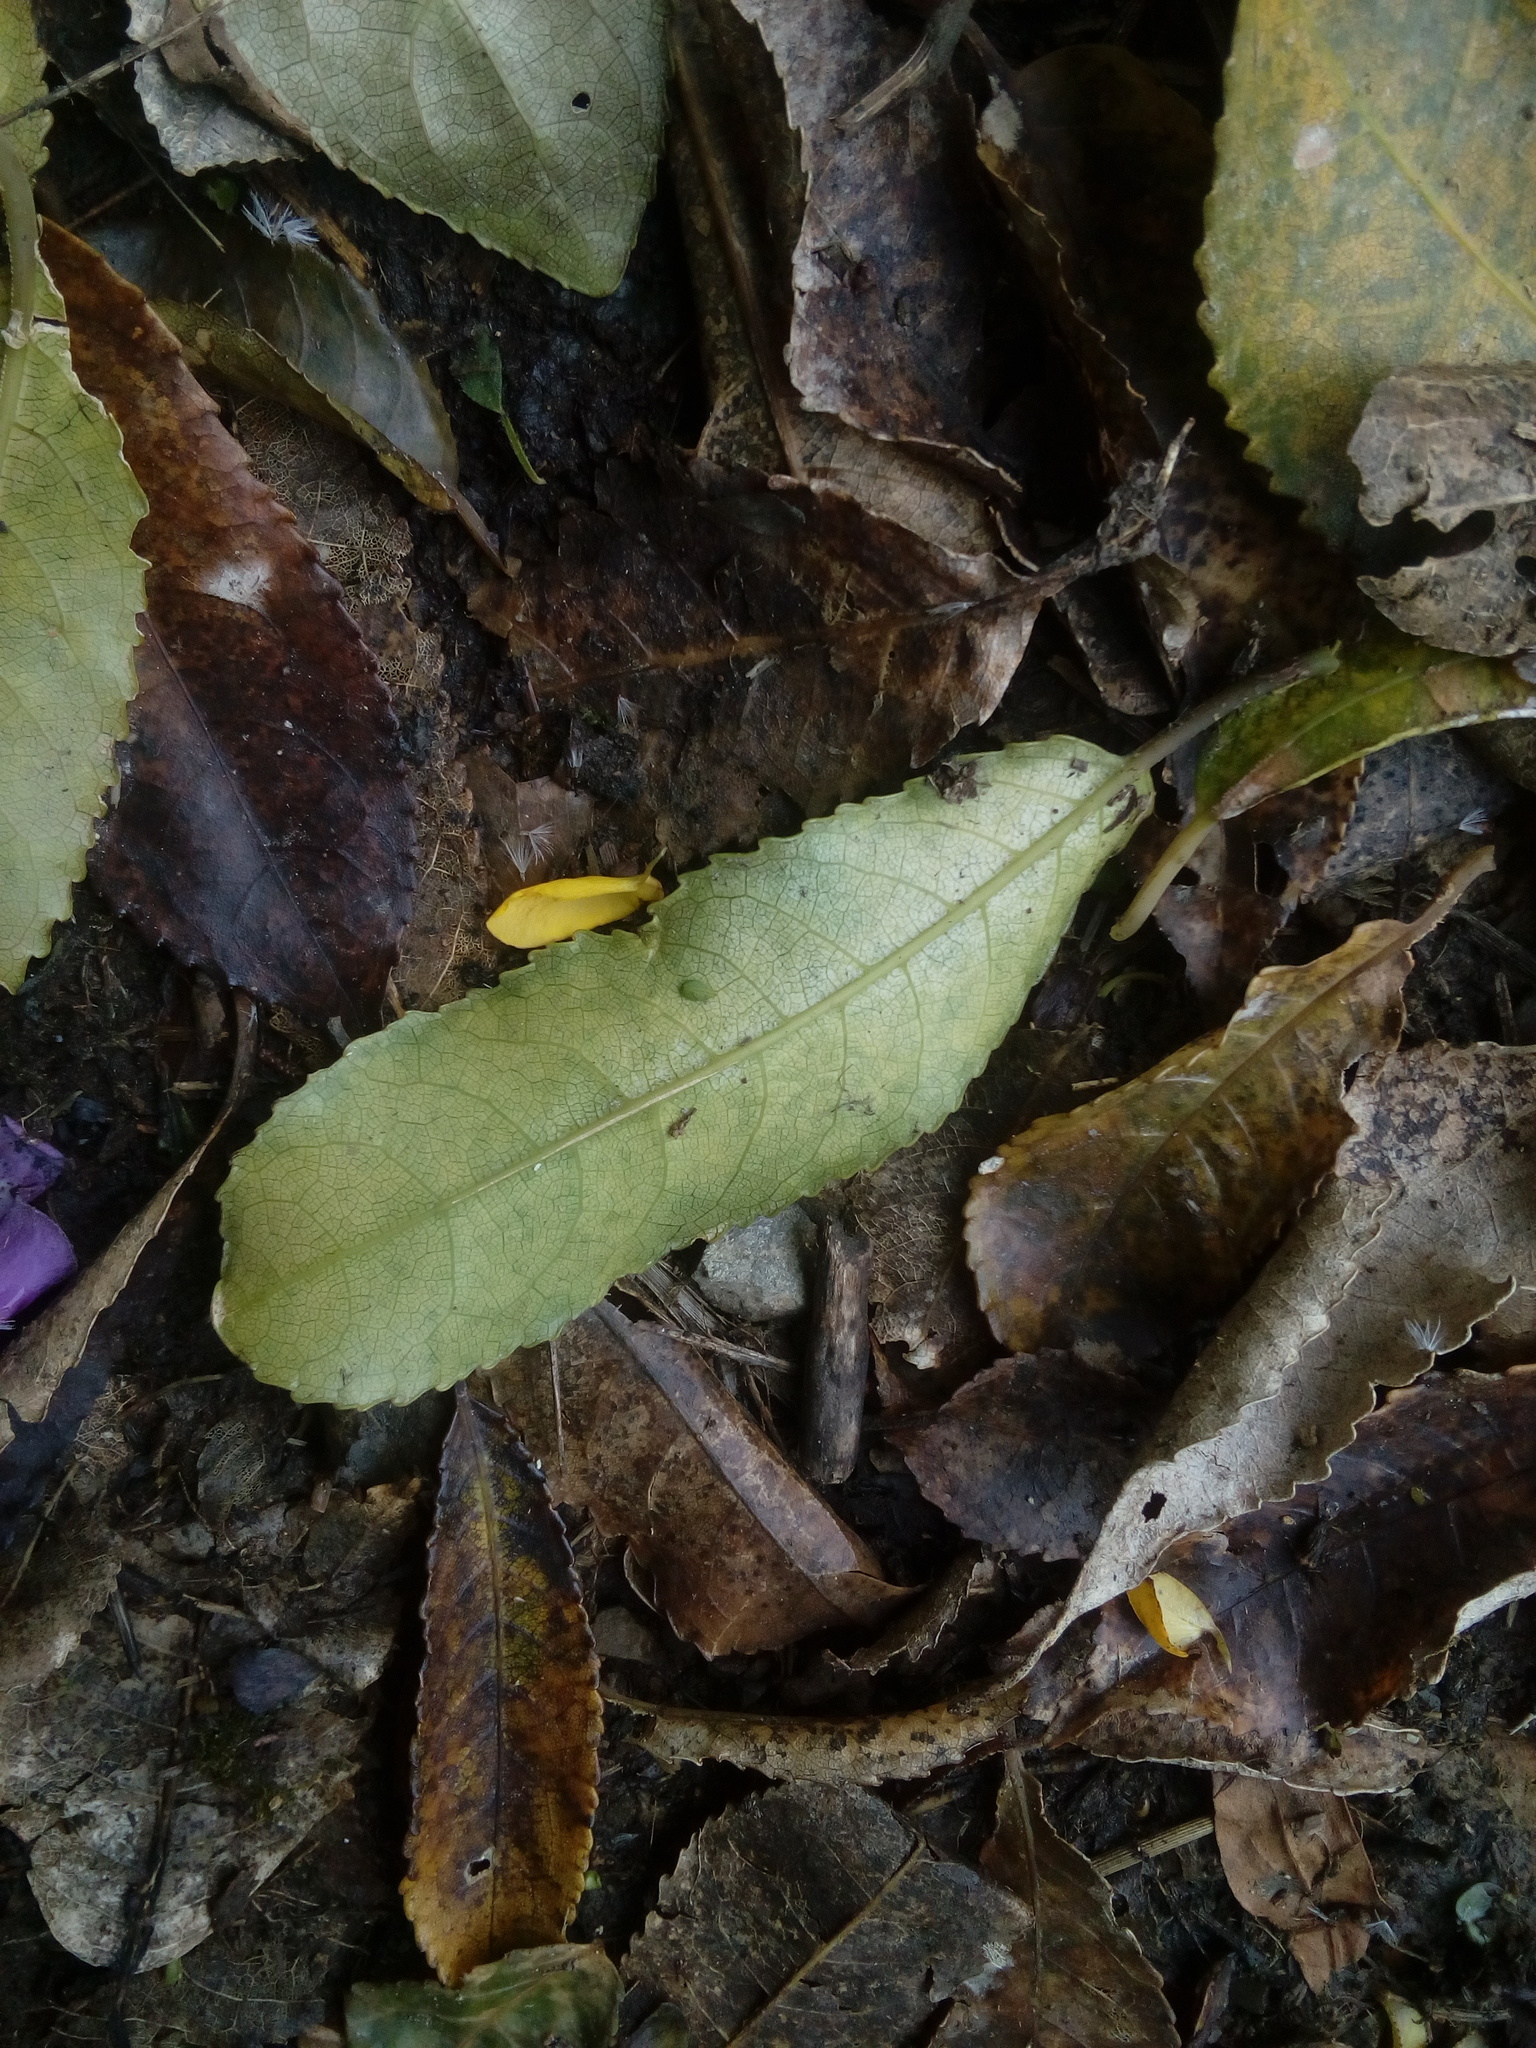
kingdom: Plantae
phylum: Tracheophyta
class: Magnoliopsida
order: Malpighiales
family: Violaceae
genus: Melicytus
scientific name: Melicytus ramiflorus
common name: Mahoe
